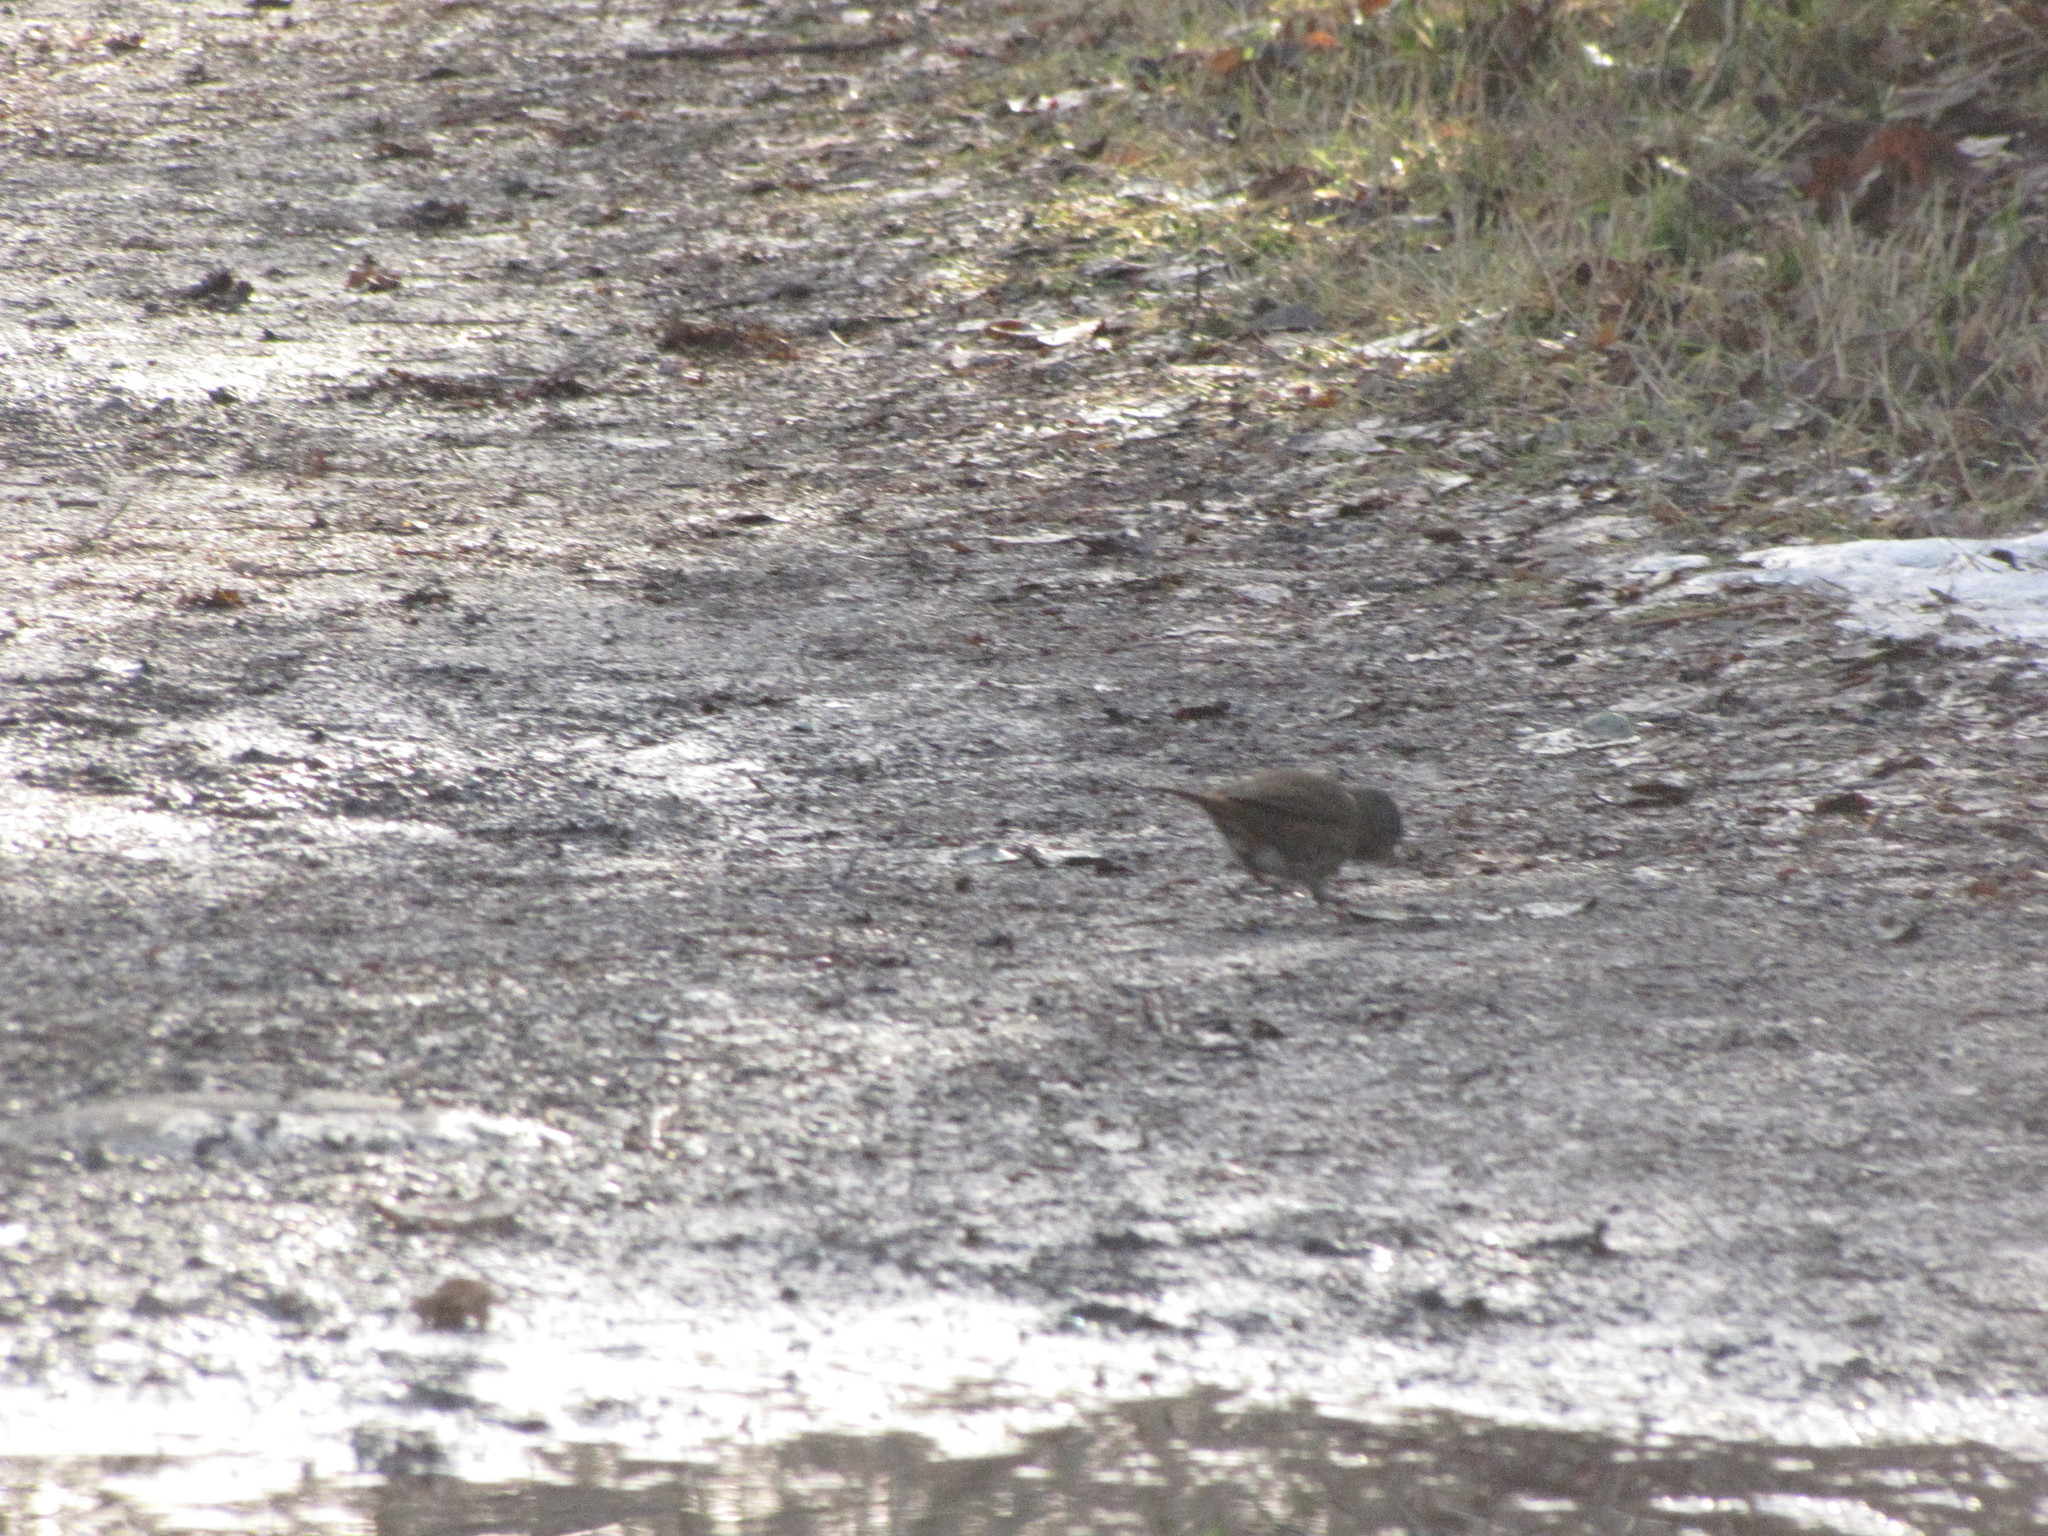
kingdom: Animalia
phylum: Chordata
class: Aves
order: Passeriformes
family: Passerellidae
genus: Passerella
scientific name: Passerella iliaca
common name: Fox sparrow
